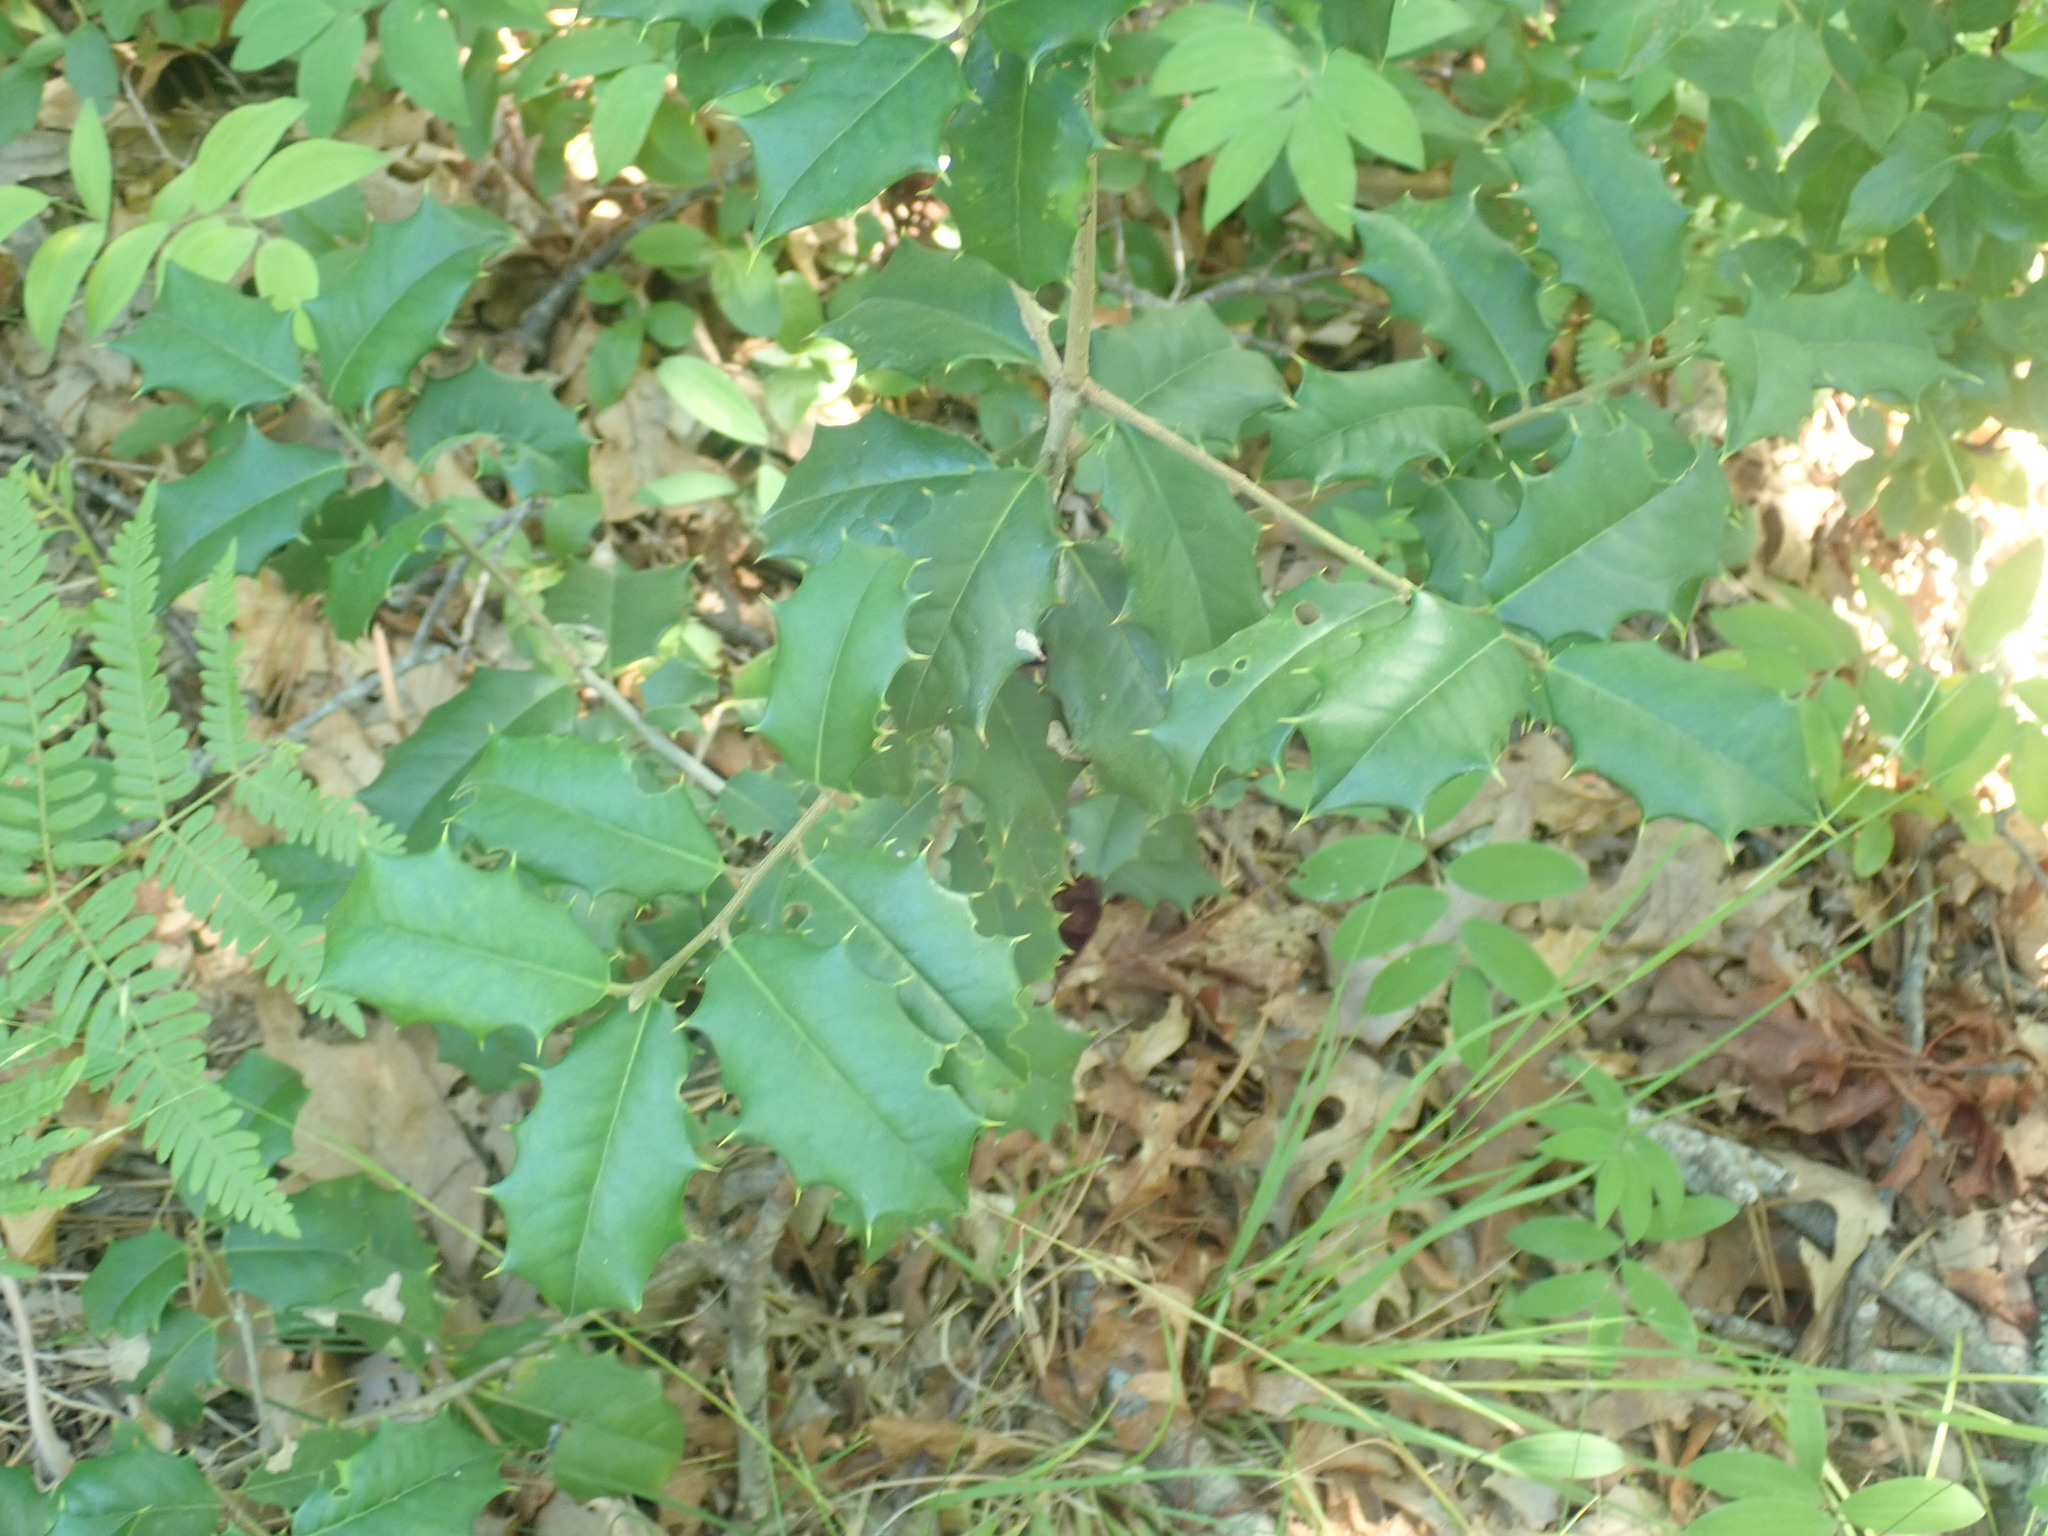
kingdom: Plantae
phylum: Tracheophyta
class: Magnoliopsida
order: Aquifoliales
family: Aquifoliaceae
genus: Ilex
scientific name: Ilex opaca
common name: American holly
